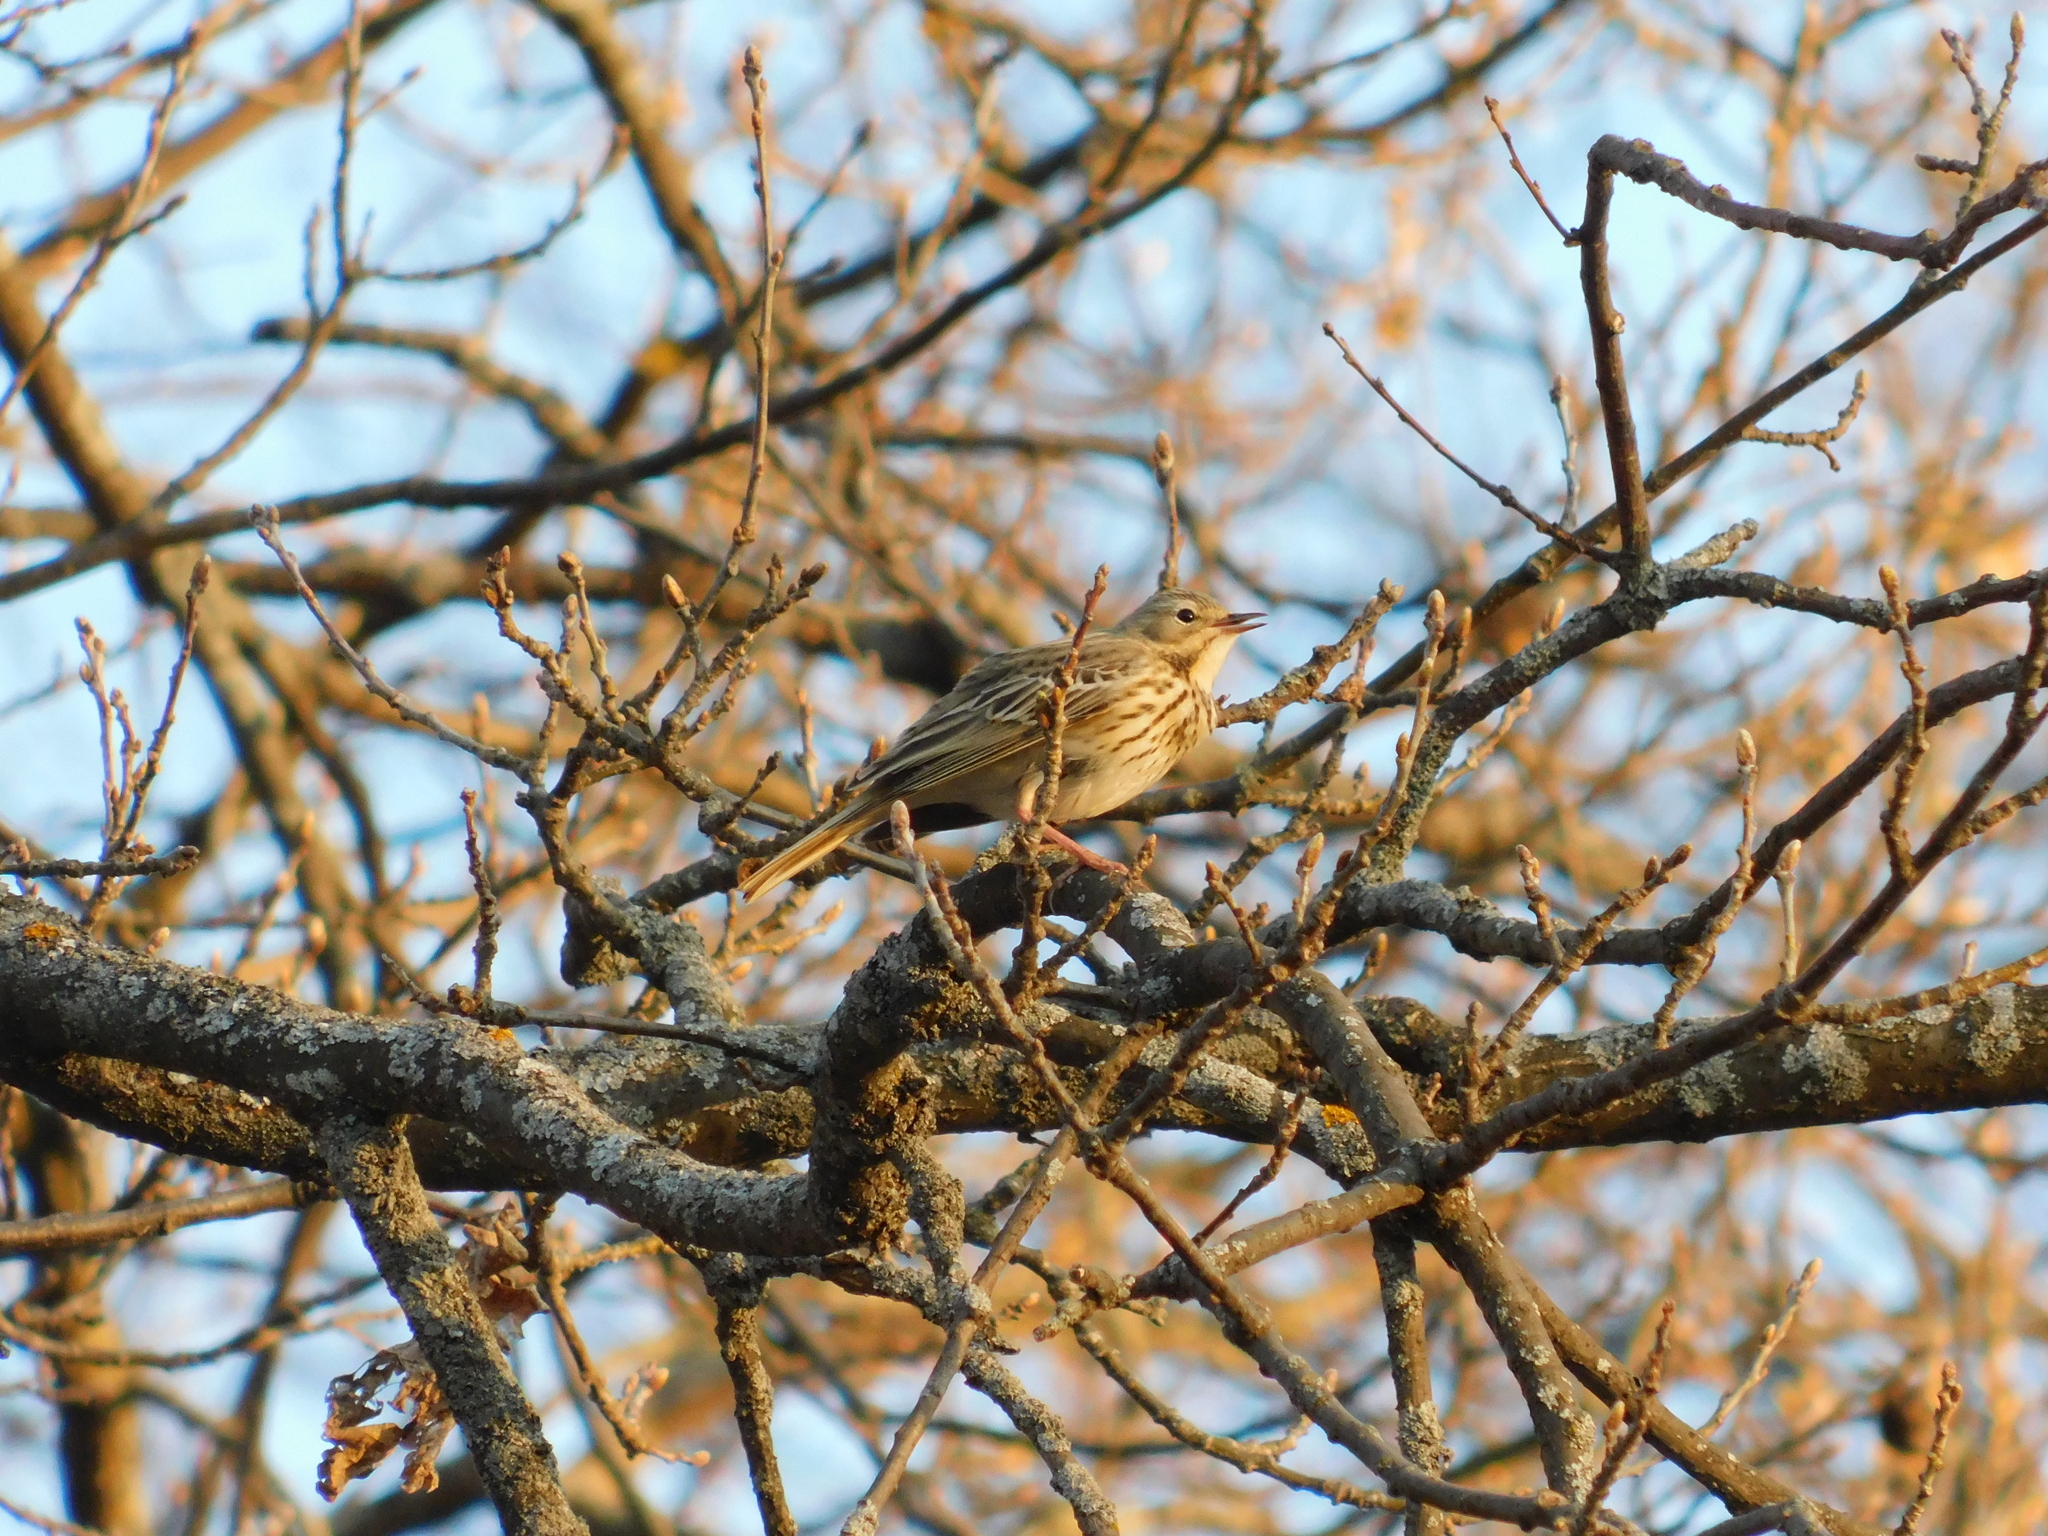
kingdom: Animalia
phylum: Chordata
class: Aves
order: Passeriformes
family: Motacillidae
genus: Anthus
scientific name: Anthus trivialis
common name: Tree pipit
